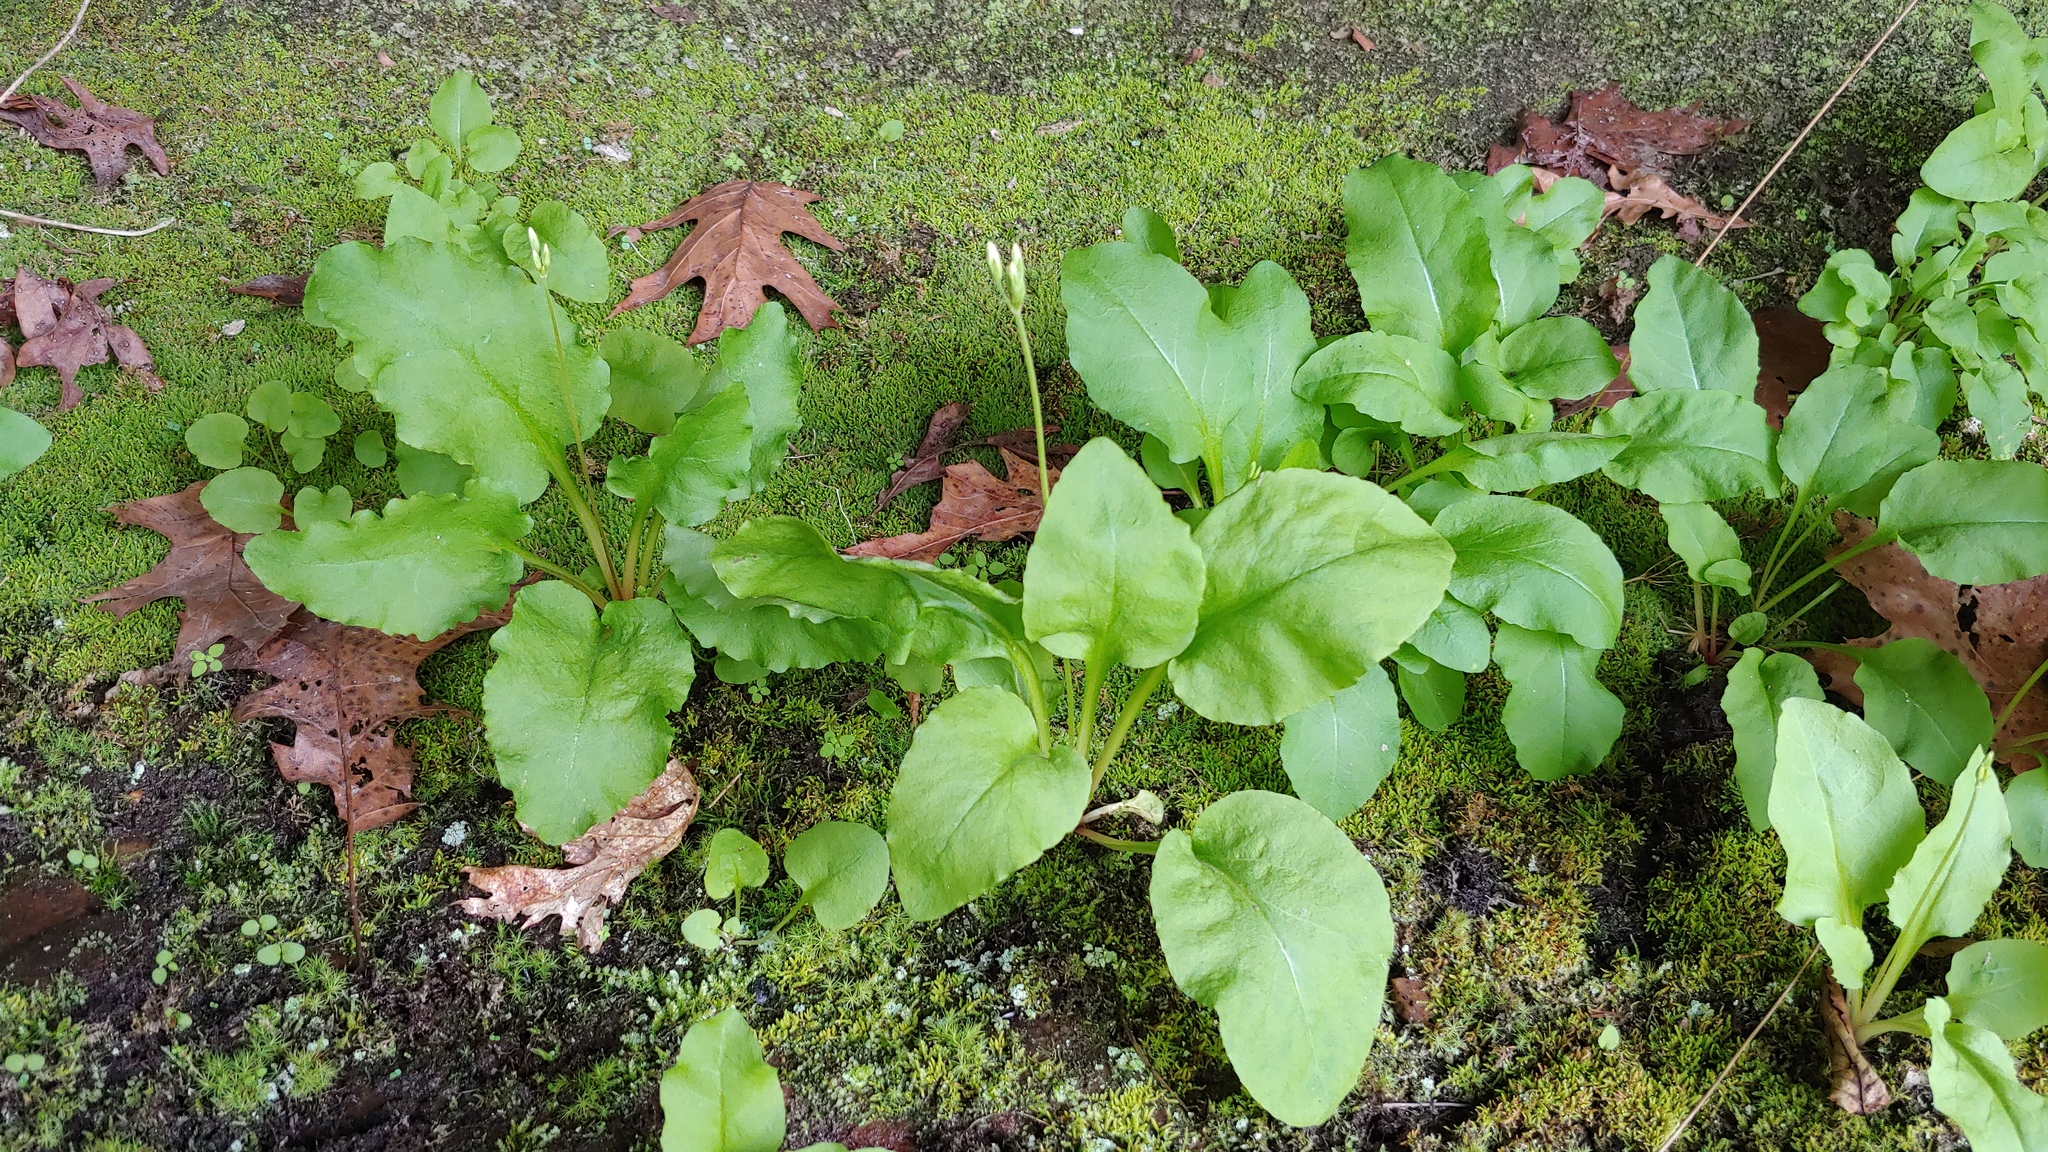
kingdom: Plantae
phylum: Tracheophyta
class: Magnoliopsida
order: Ericales
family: Primulaceae
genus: Dodecatheon
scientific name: Dodecatheon frenchii
